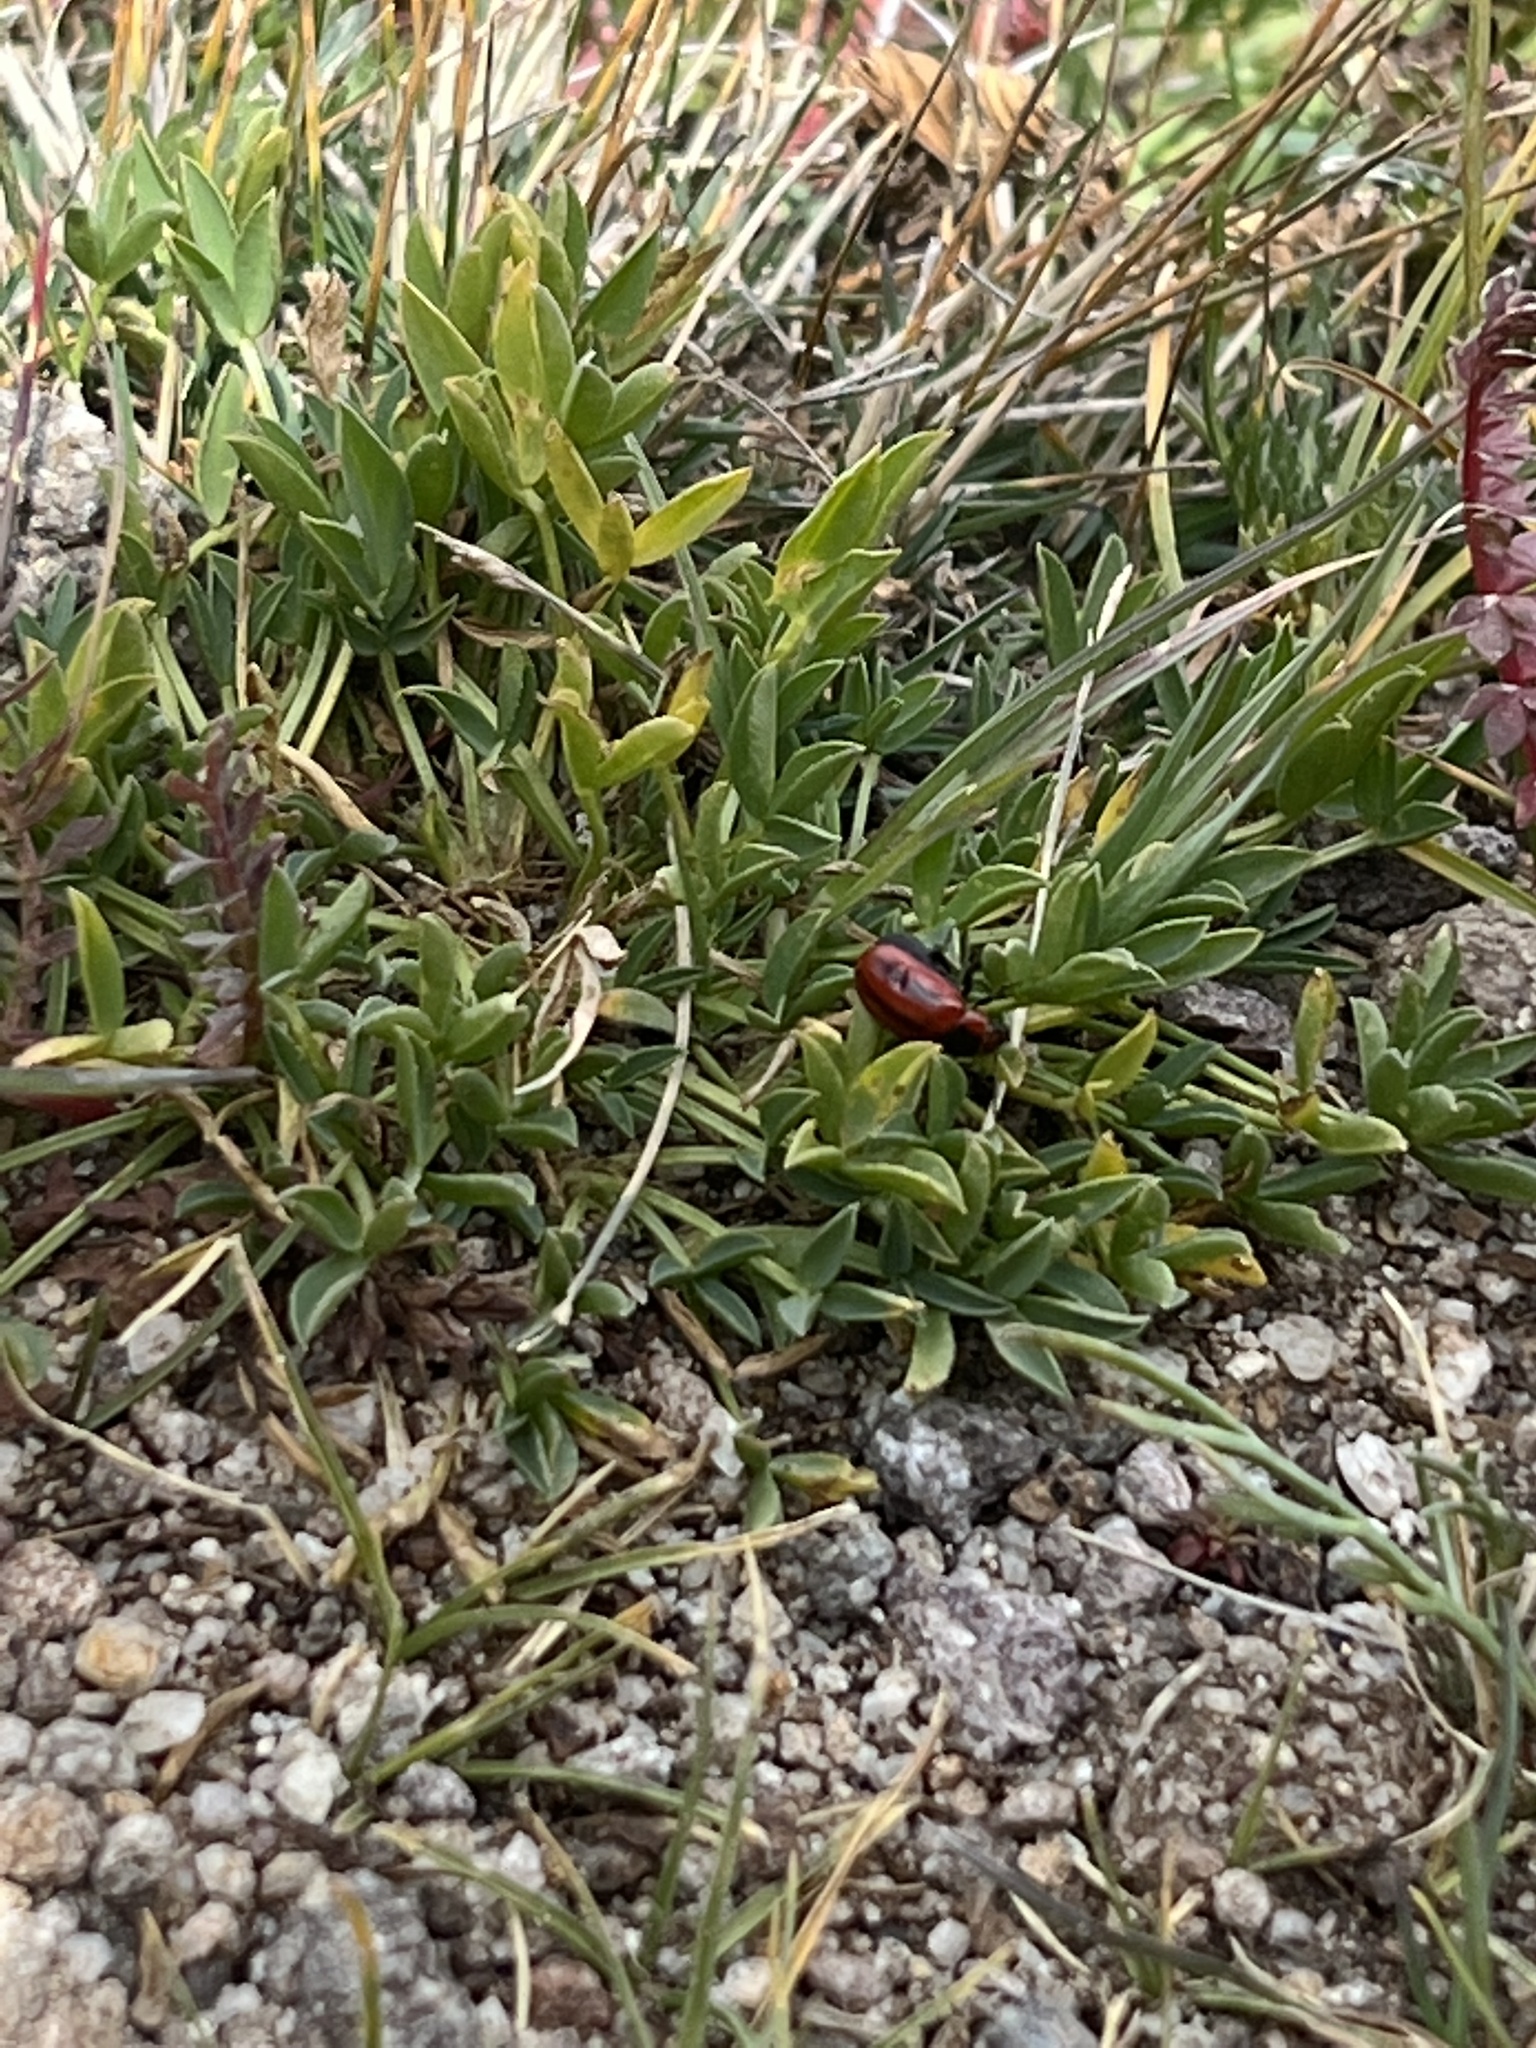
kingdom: Animalia
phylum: Arthropoda
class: Insecta
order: Coleoptera
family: Chrysomelidae
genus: Entomoscelis
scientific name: Entomoscelis americana
